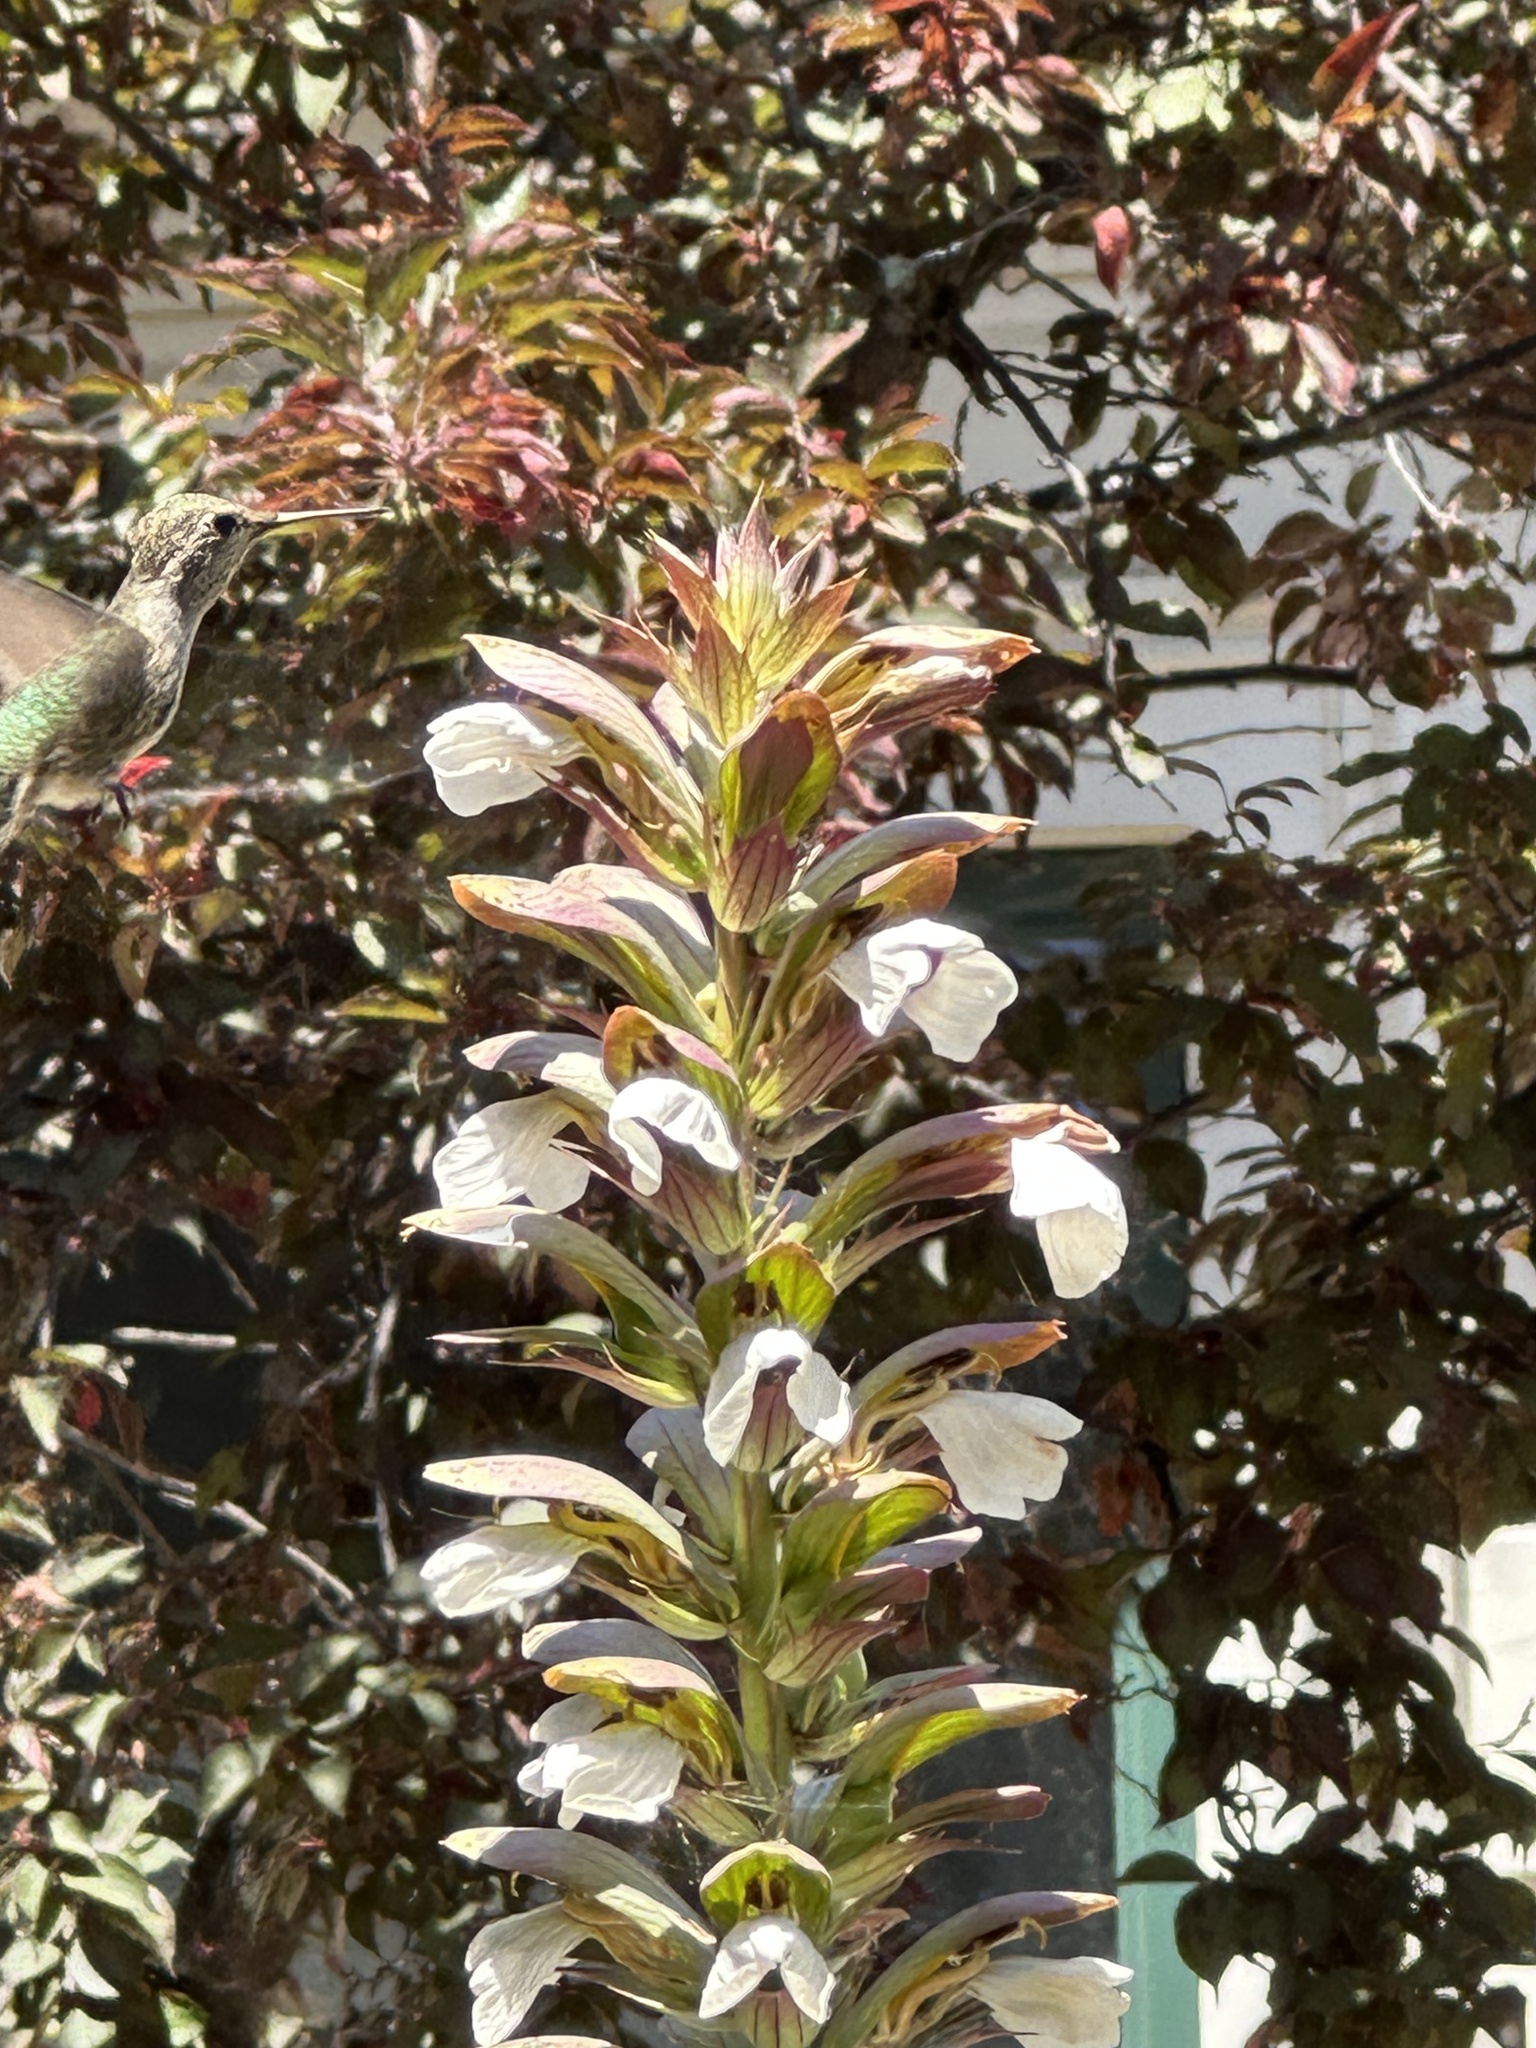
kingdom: Animalia
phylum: Chordata
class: Aves
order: Apodiformes
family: Trochilidae
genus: Calypte
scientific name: Calypte anna
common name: Anna's hummingbird
